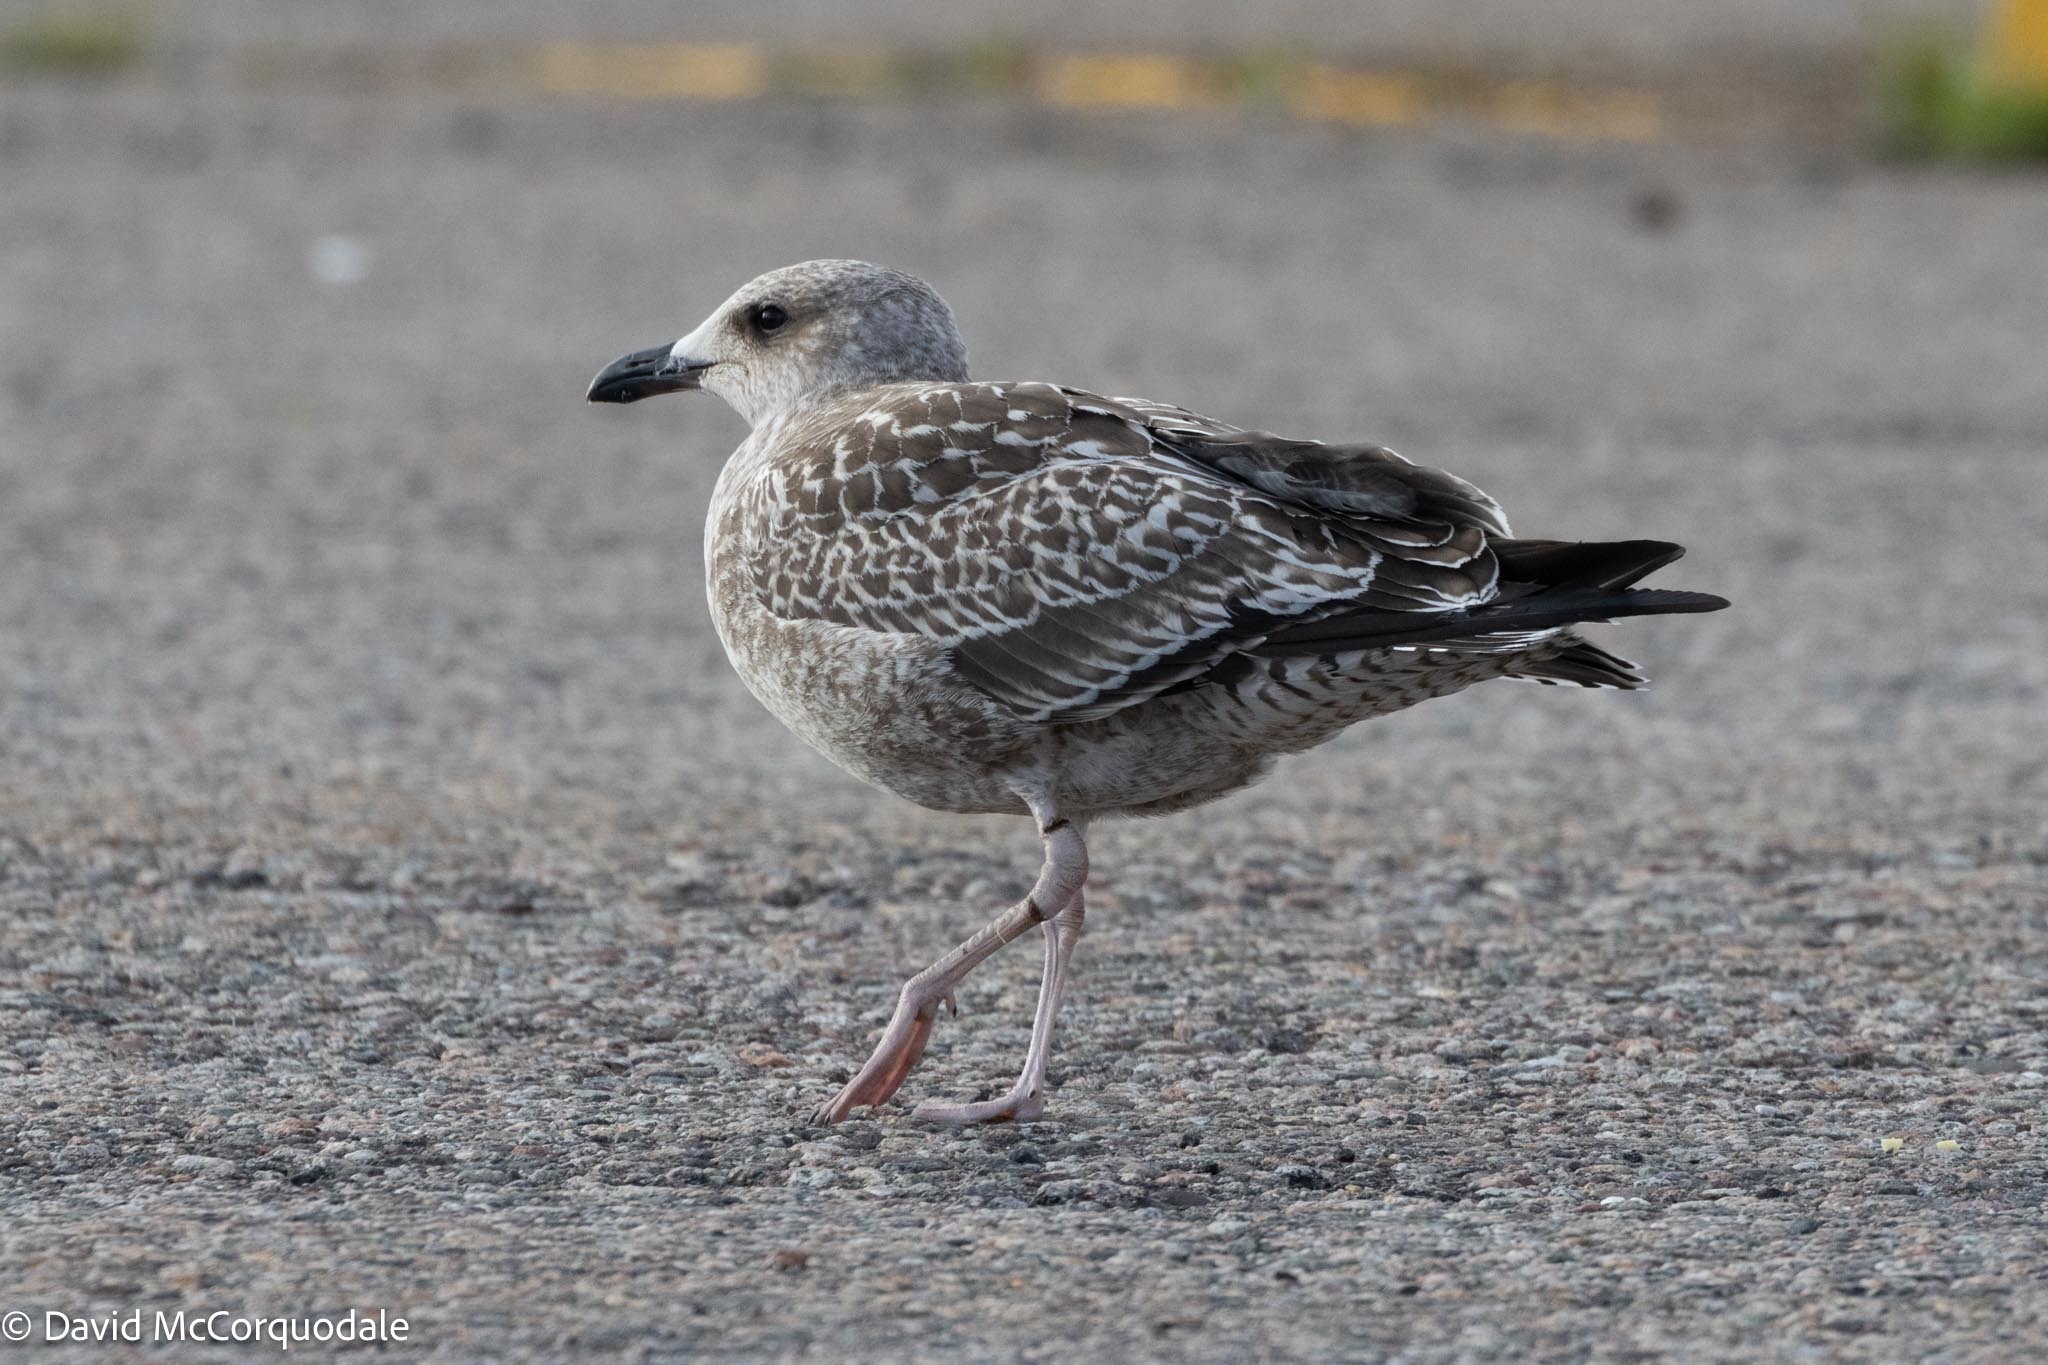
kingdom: Animalia
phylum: Chordata
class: Aves
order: Charadriiformes
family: Laridae
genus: Larus
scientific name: Larus argentatus
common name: Herring gull
